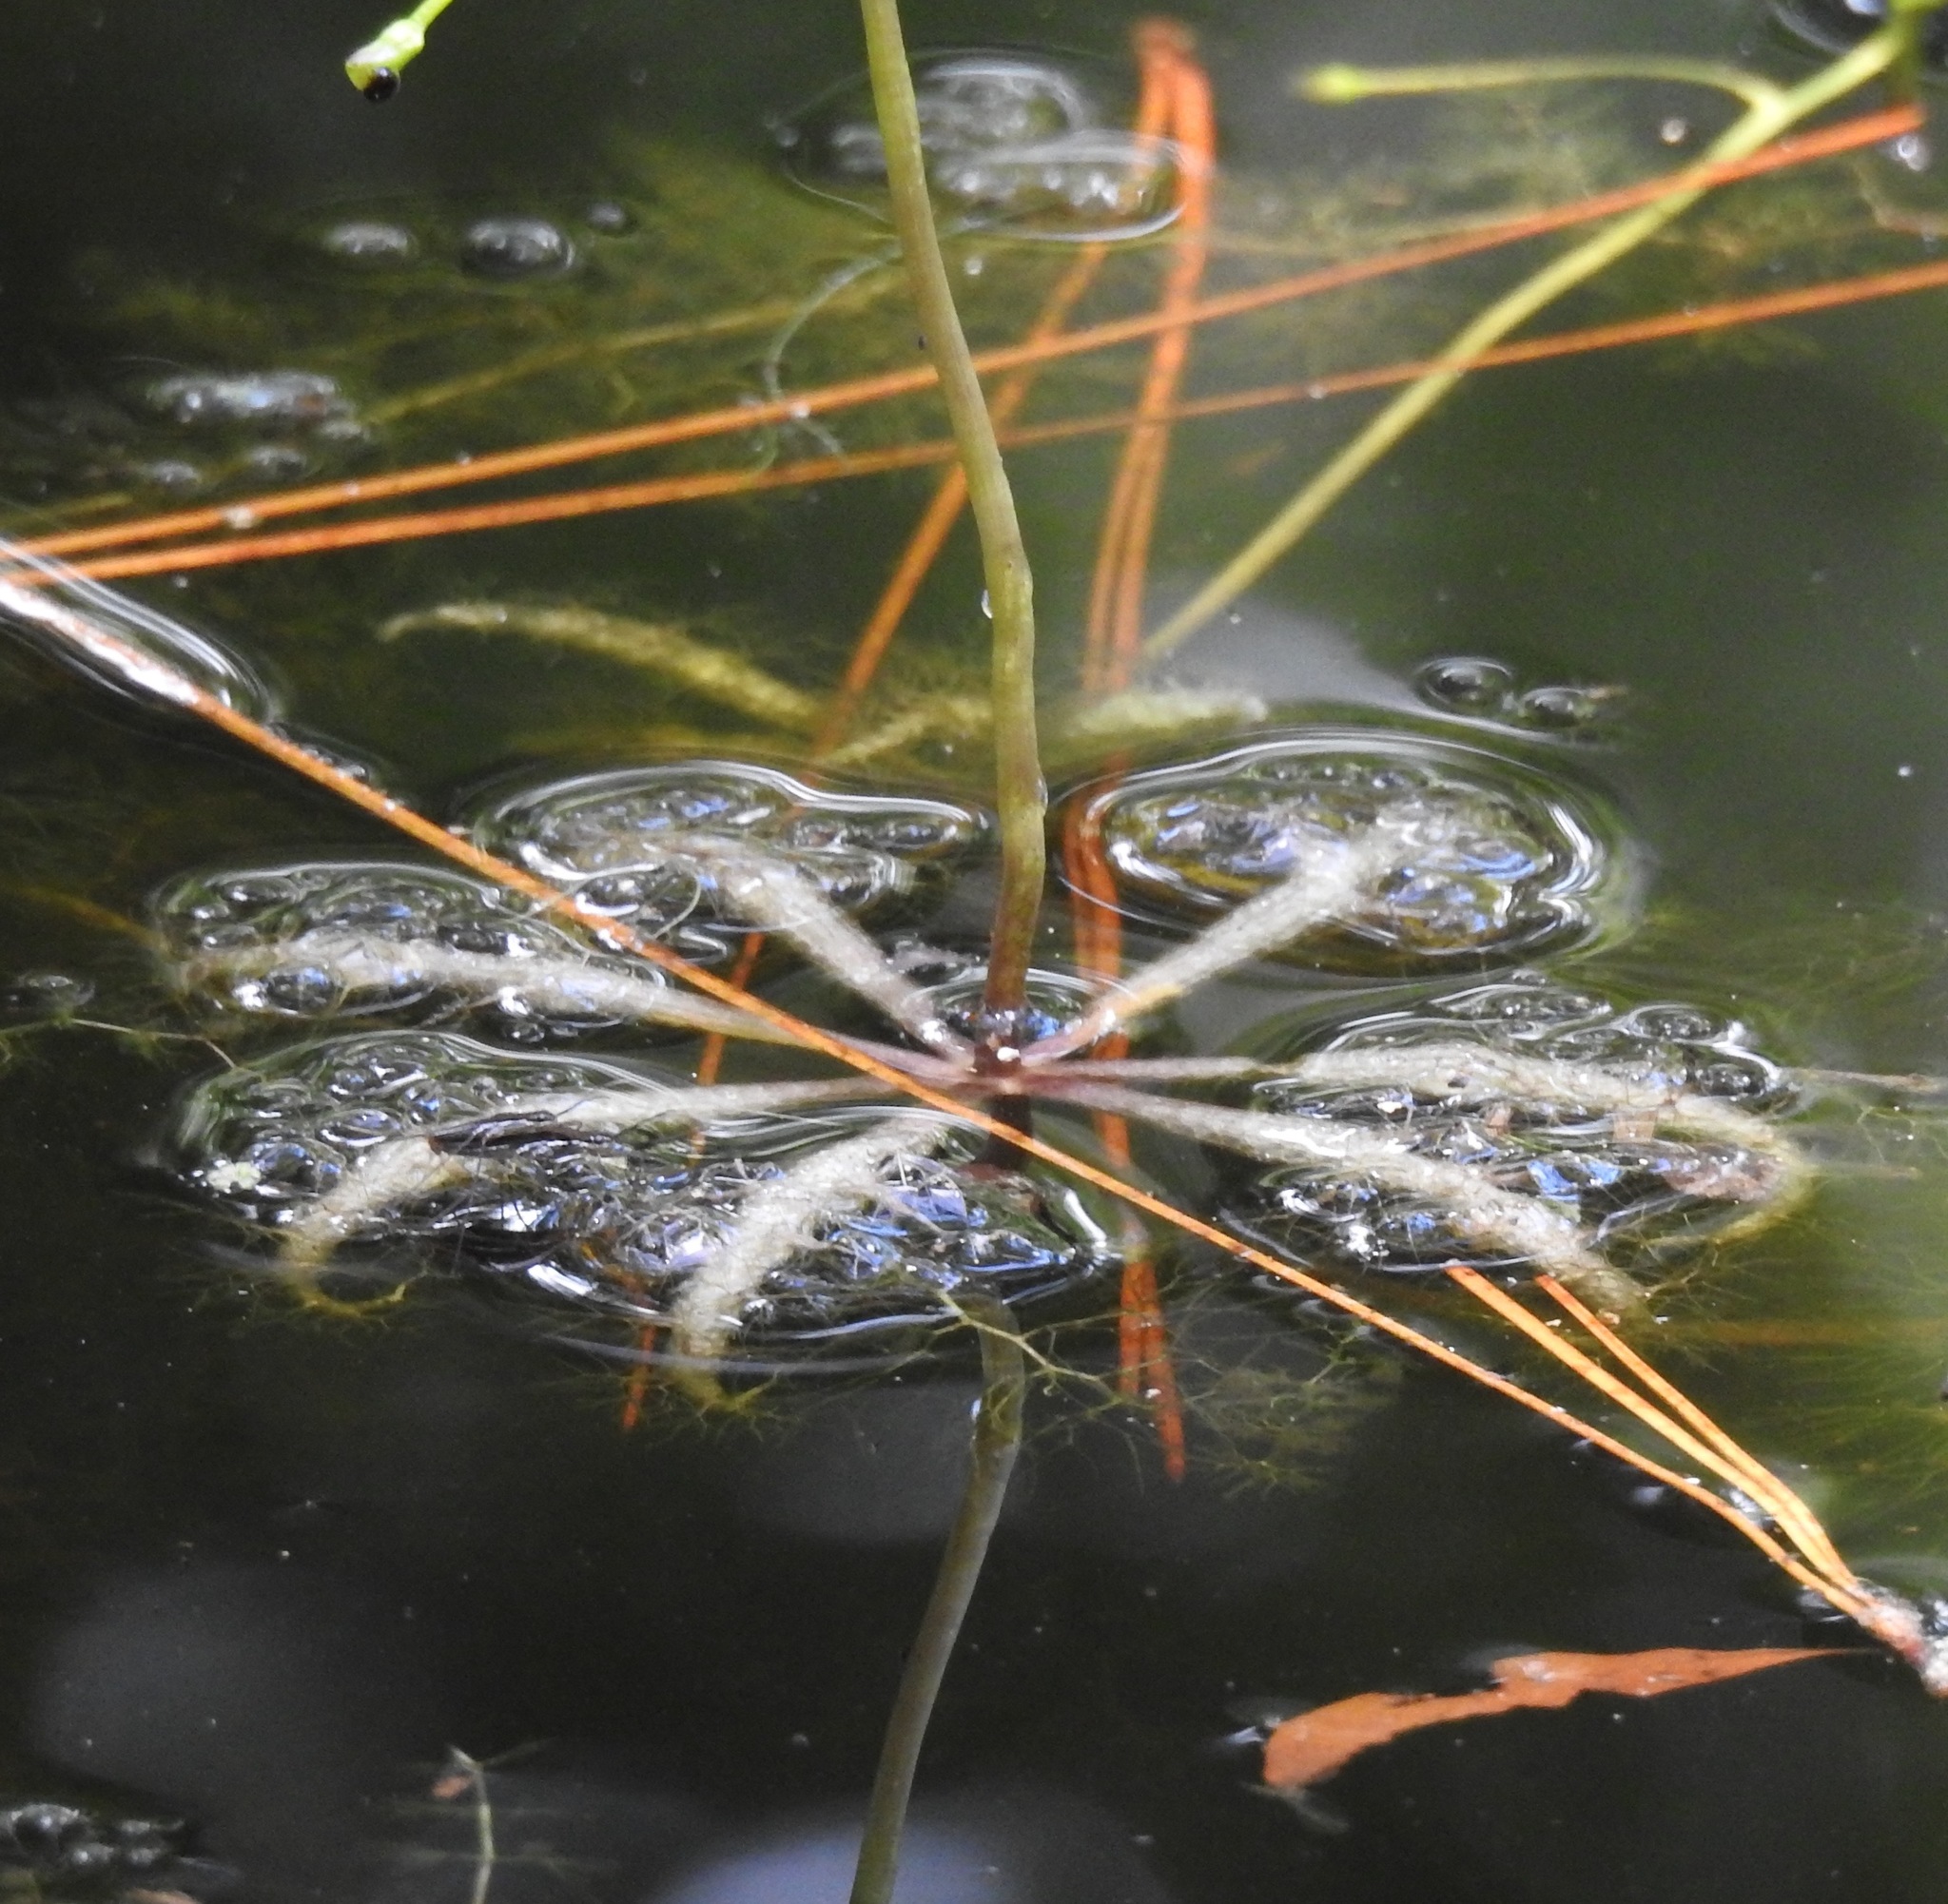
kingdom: Plantae
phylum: Tracheophyta
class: Magnoliopsida
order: Lamiales
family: Lentibulariaceae
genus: Utricularia
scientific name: Utricularia inflata
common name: Floating bladderwort
